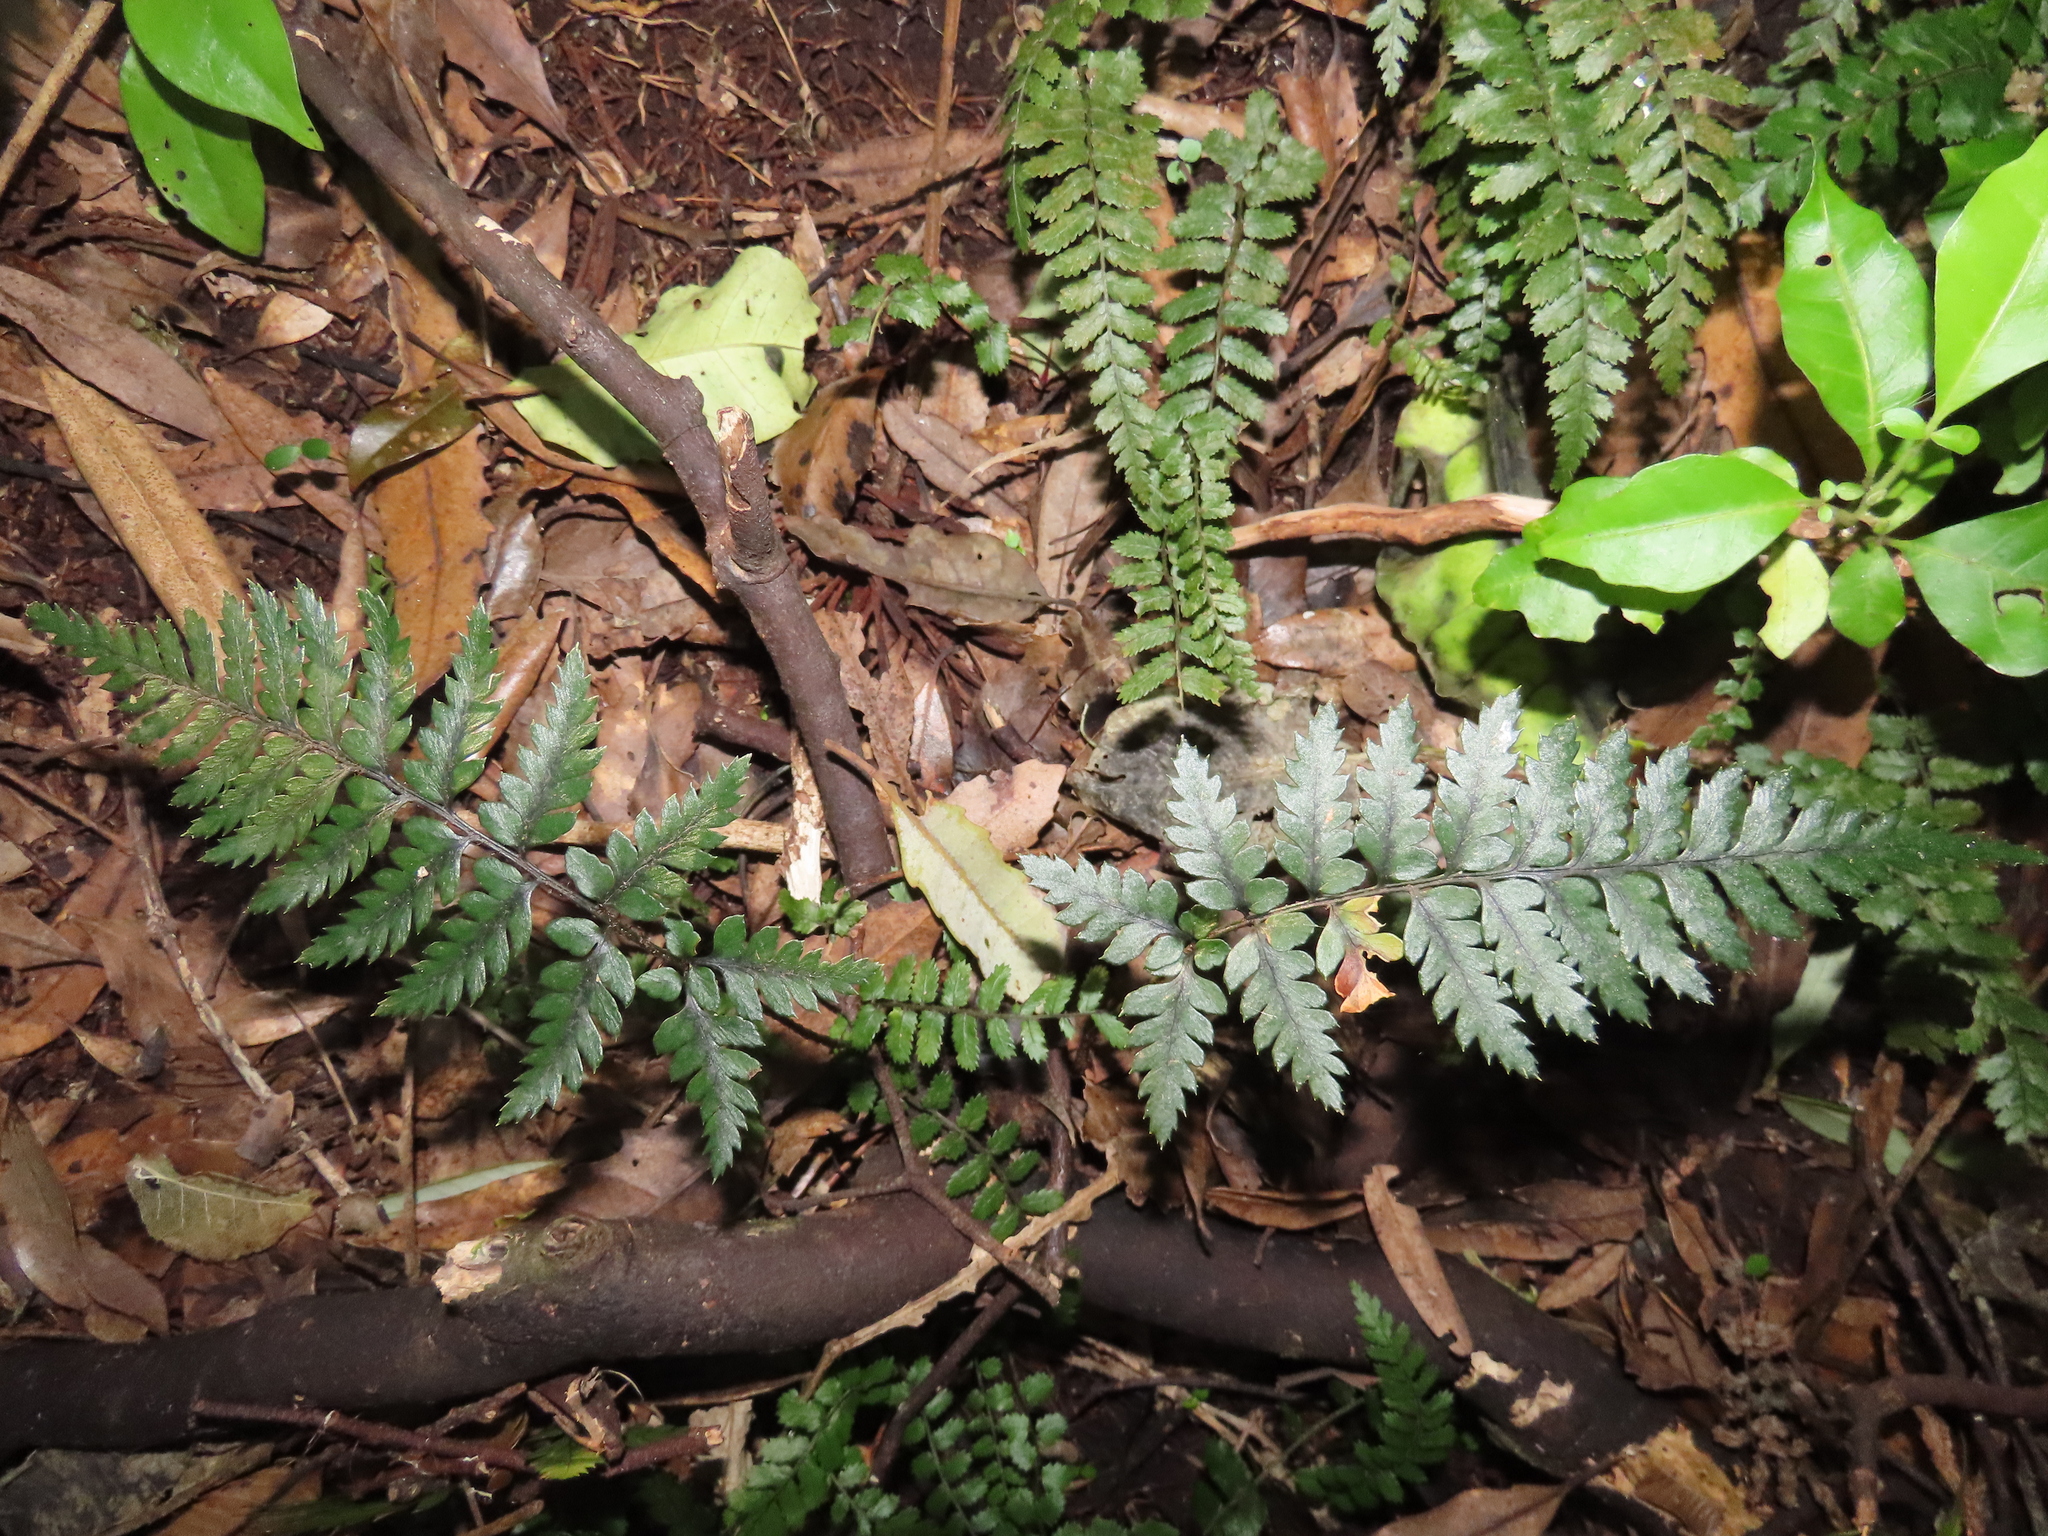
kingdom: Plantae
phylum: Tracheophyta
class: Polypodiopsida
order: Polypodiales
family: Dryopteridaceae
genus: Polystichum
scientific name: Polystichum neozelandicum
